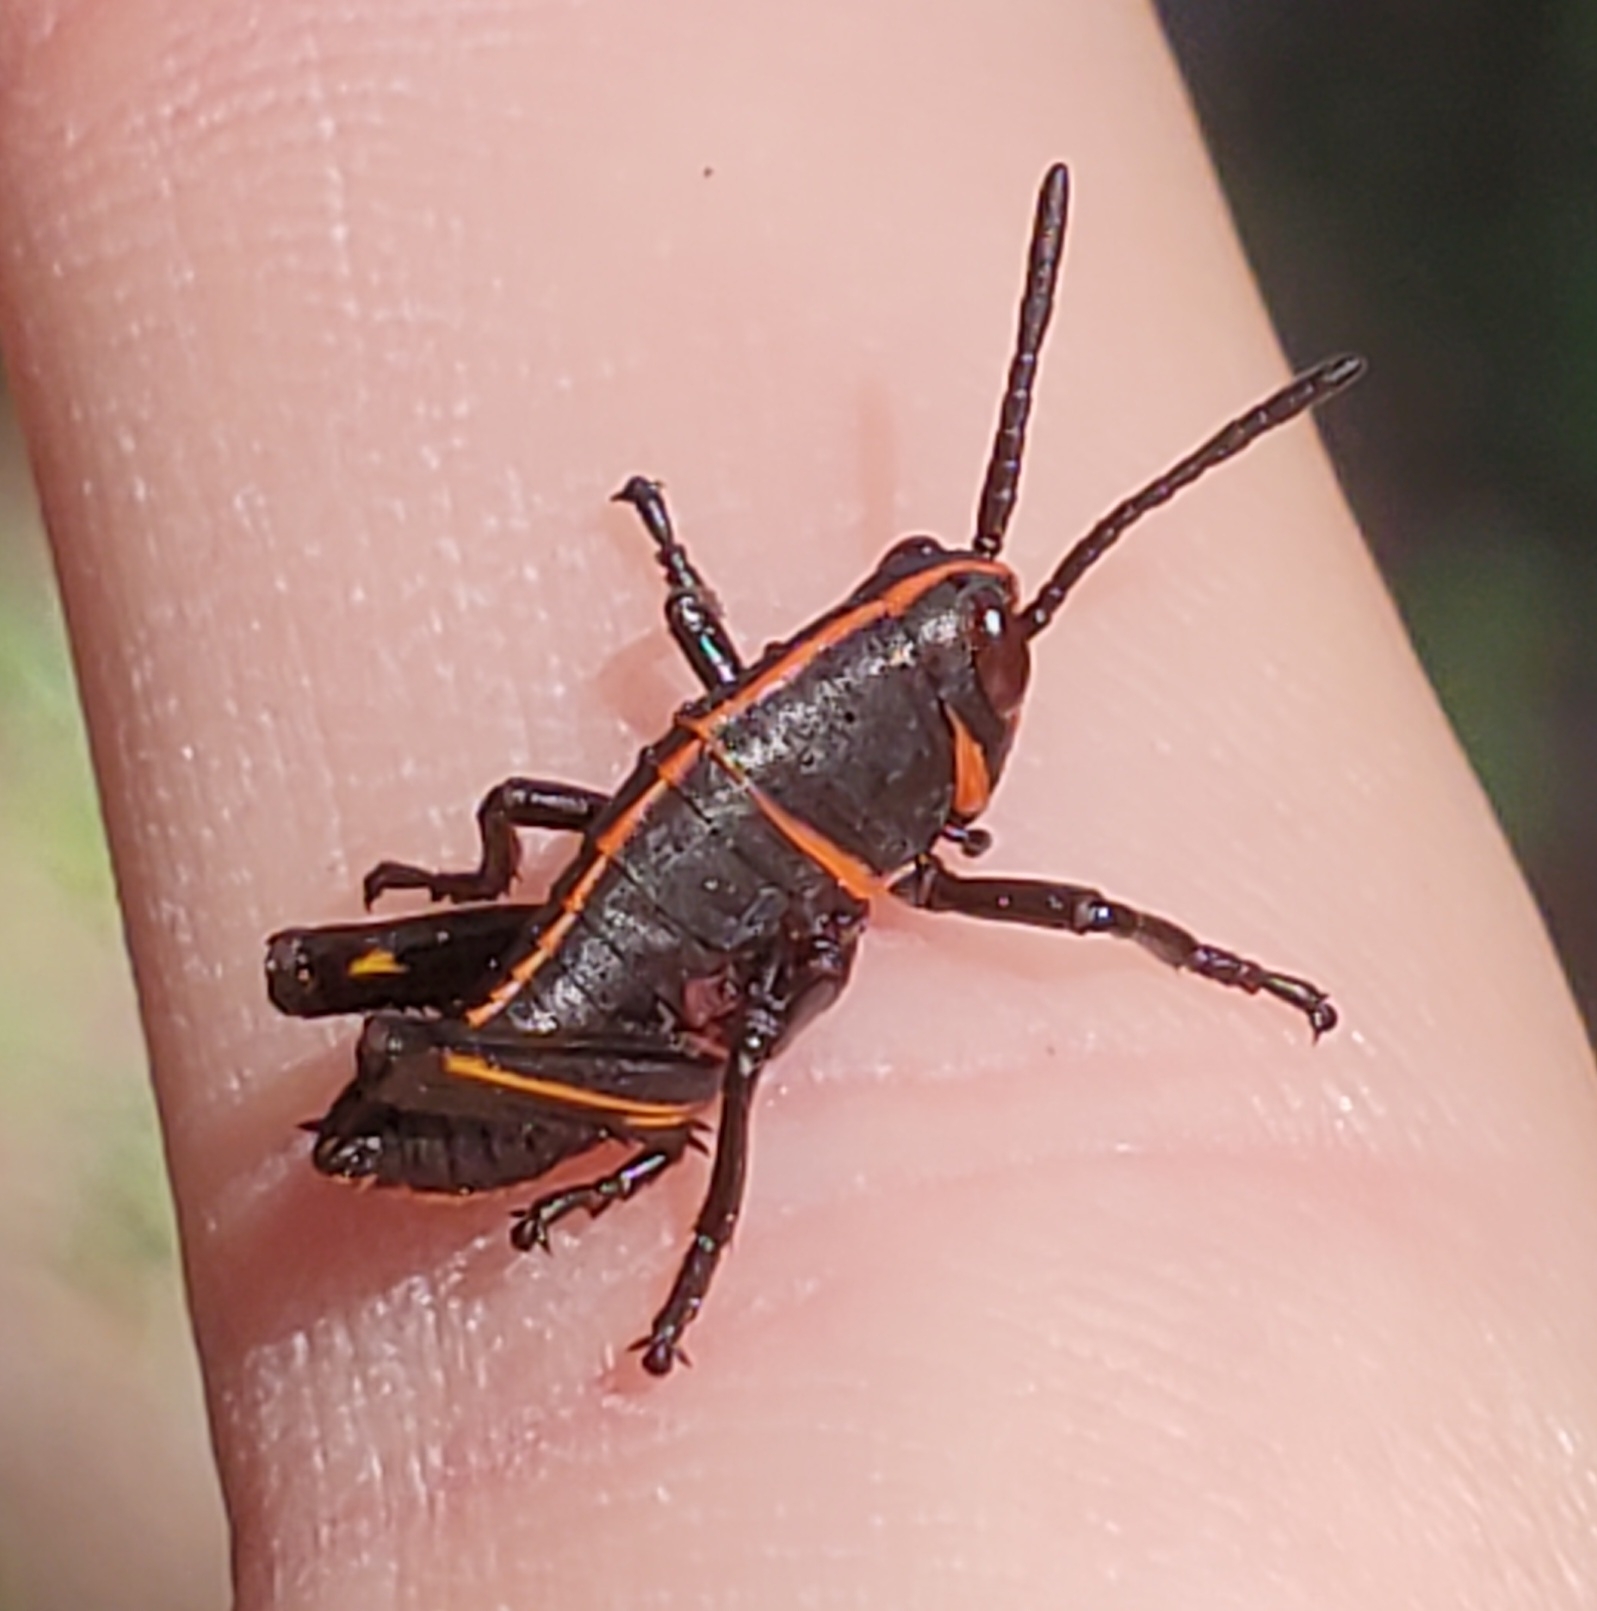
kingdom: Animalia
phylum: Arthropoda
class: Insecta
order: Orthoptera
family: Romaleidae
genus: Romalea
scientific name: Romalea microptera
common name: Eastern lubber grasshopper
